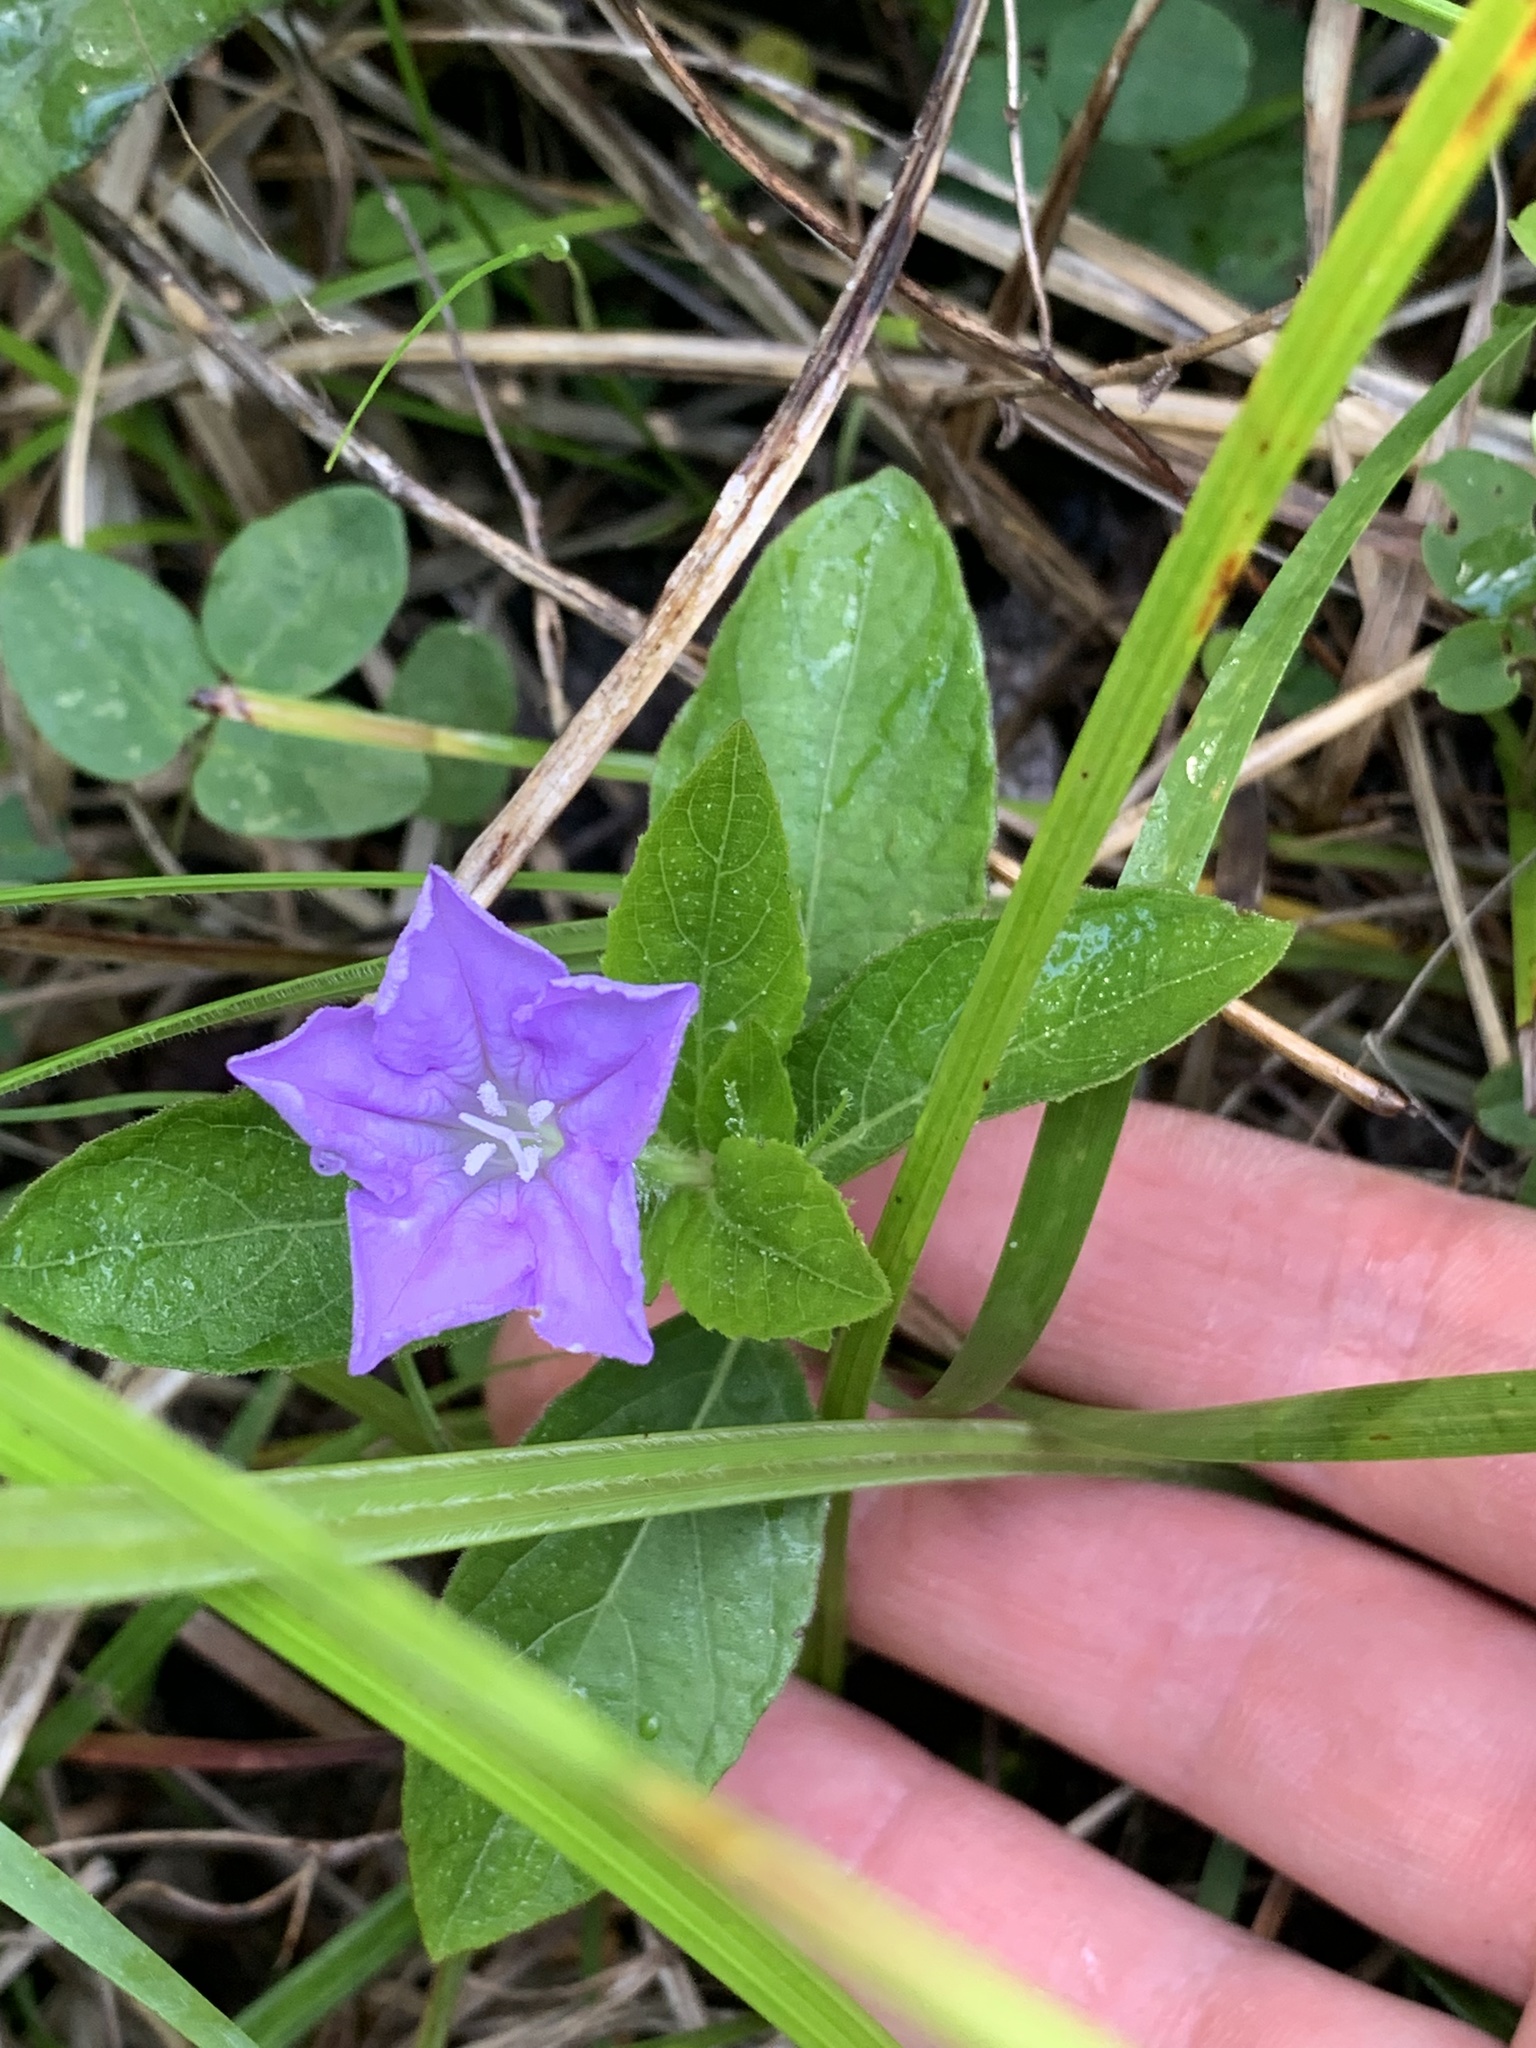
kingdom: Plantae
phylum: Tracheophyta
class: Magnoliopsida
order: Lamiales
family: Acanthaceae
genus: Ruellia
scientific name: Ruellia caroliniensis
